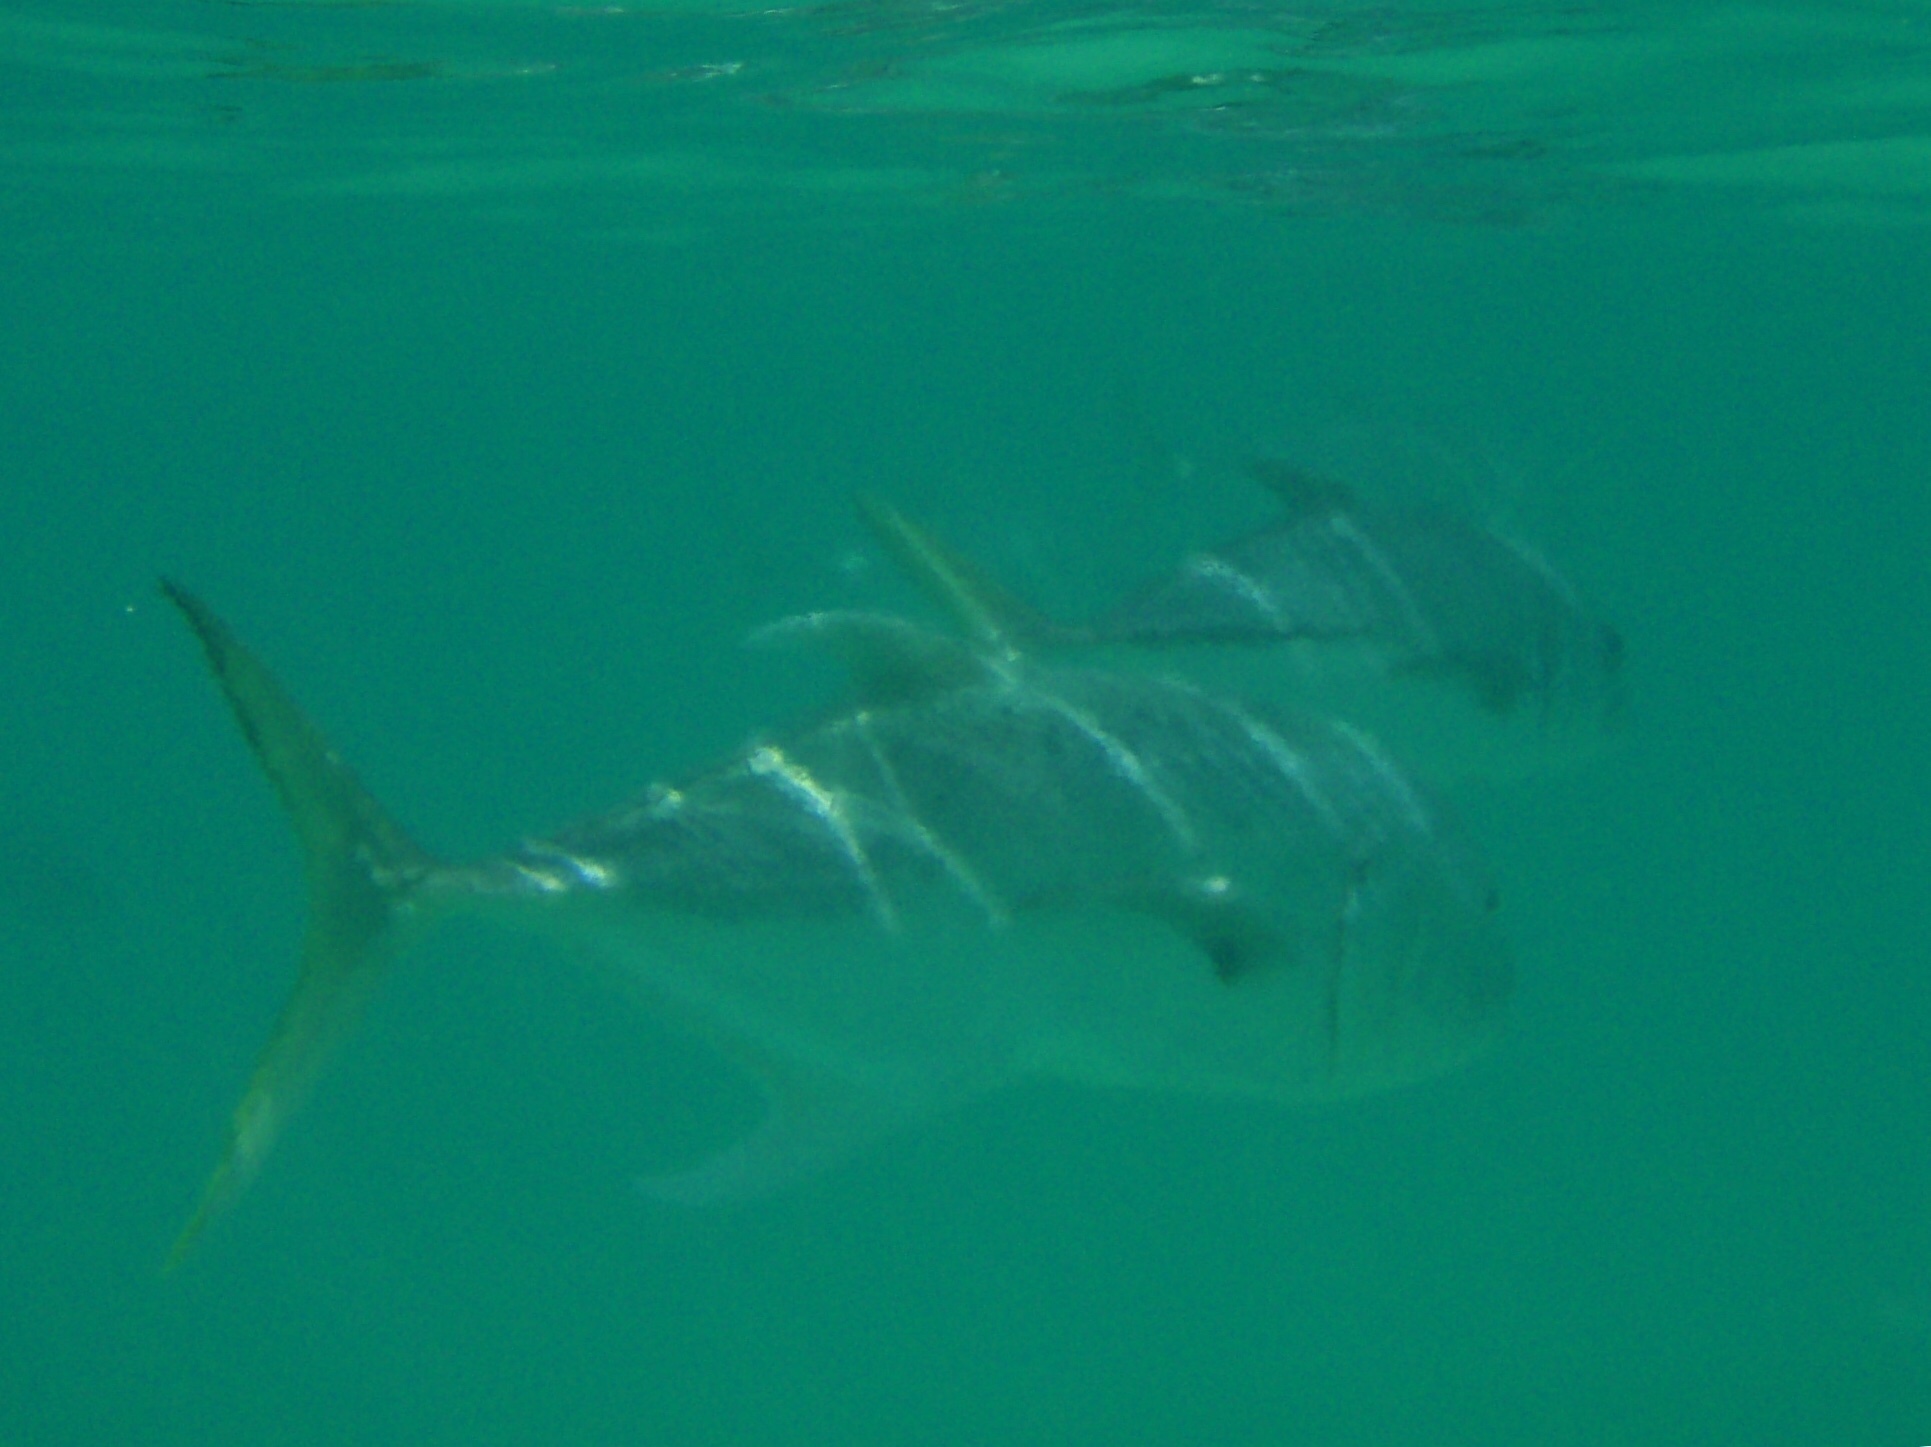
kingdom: Animalia
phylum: Chordata
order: Perciformes
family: Carangidae
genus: Caranx
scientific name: Caranx latus
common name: Horse eye jack
